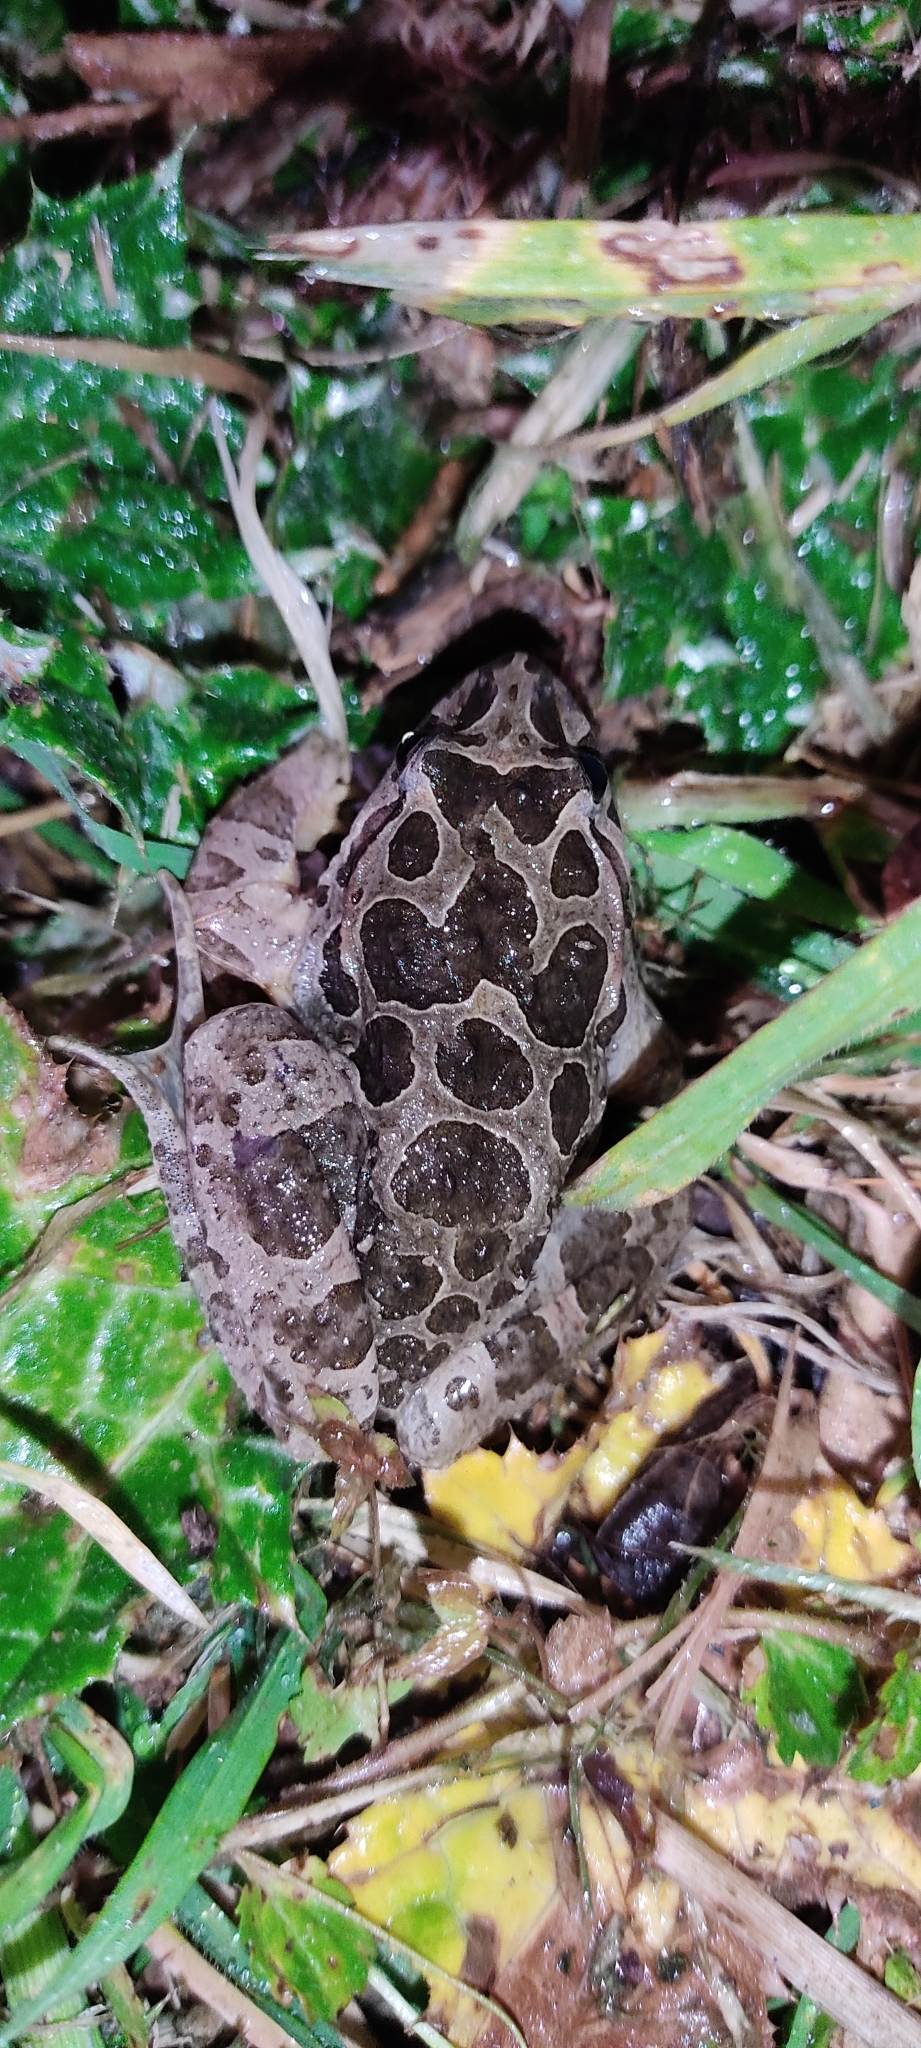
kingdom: Animalia
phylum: Chordata
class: Amphibia
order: Anura
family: Alytidae
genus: Discoglossus
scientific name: Discoglossus pictus
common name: Painted frog
